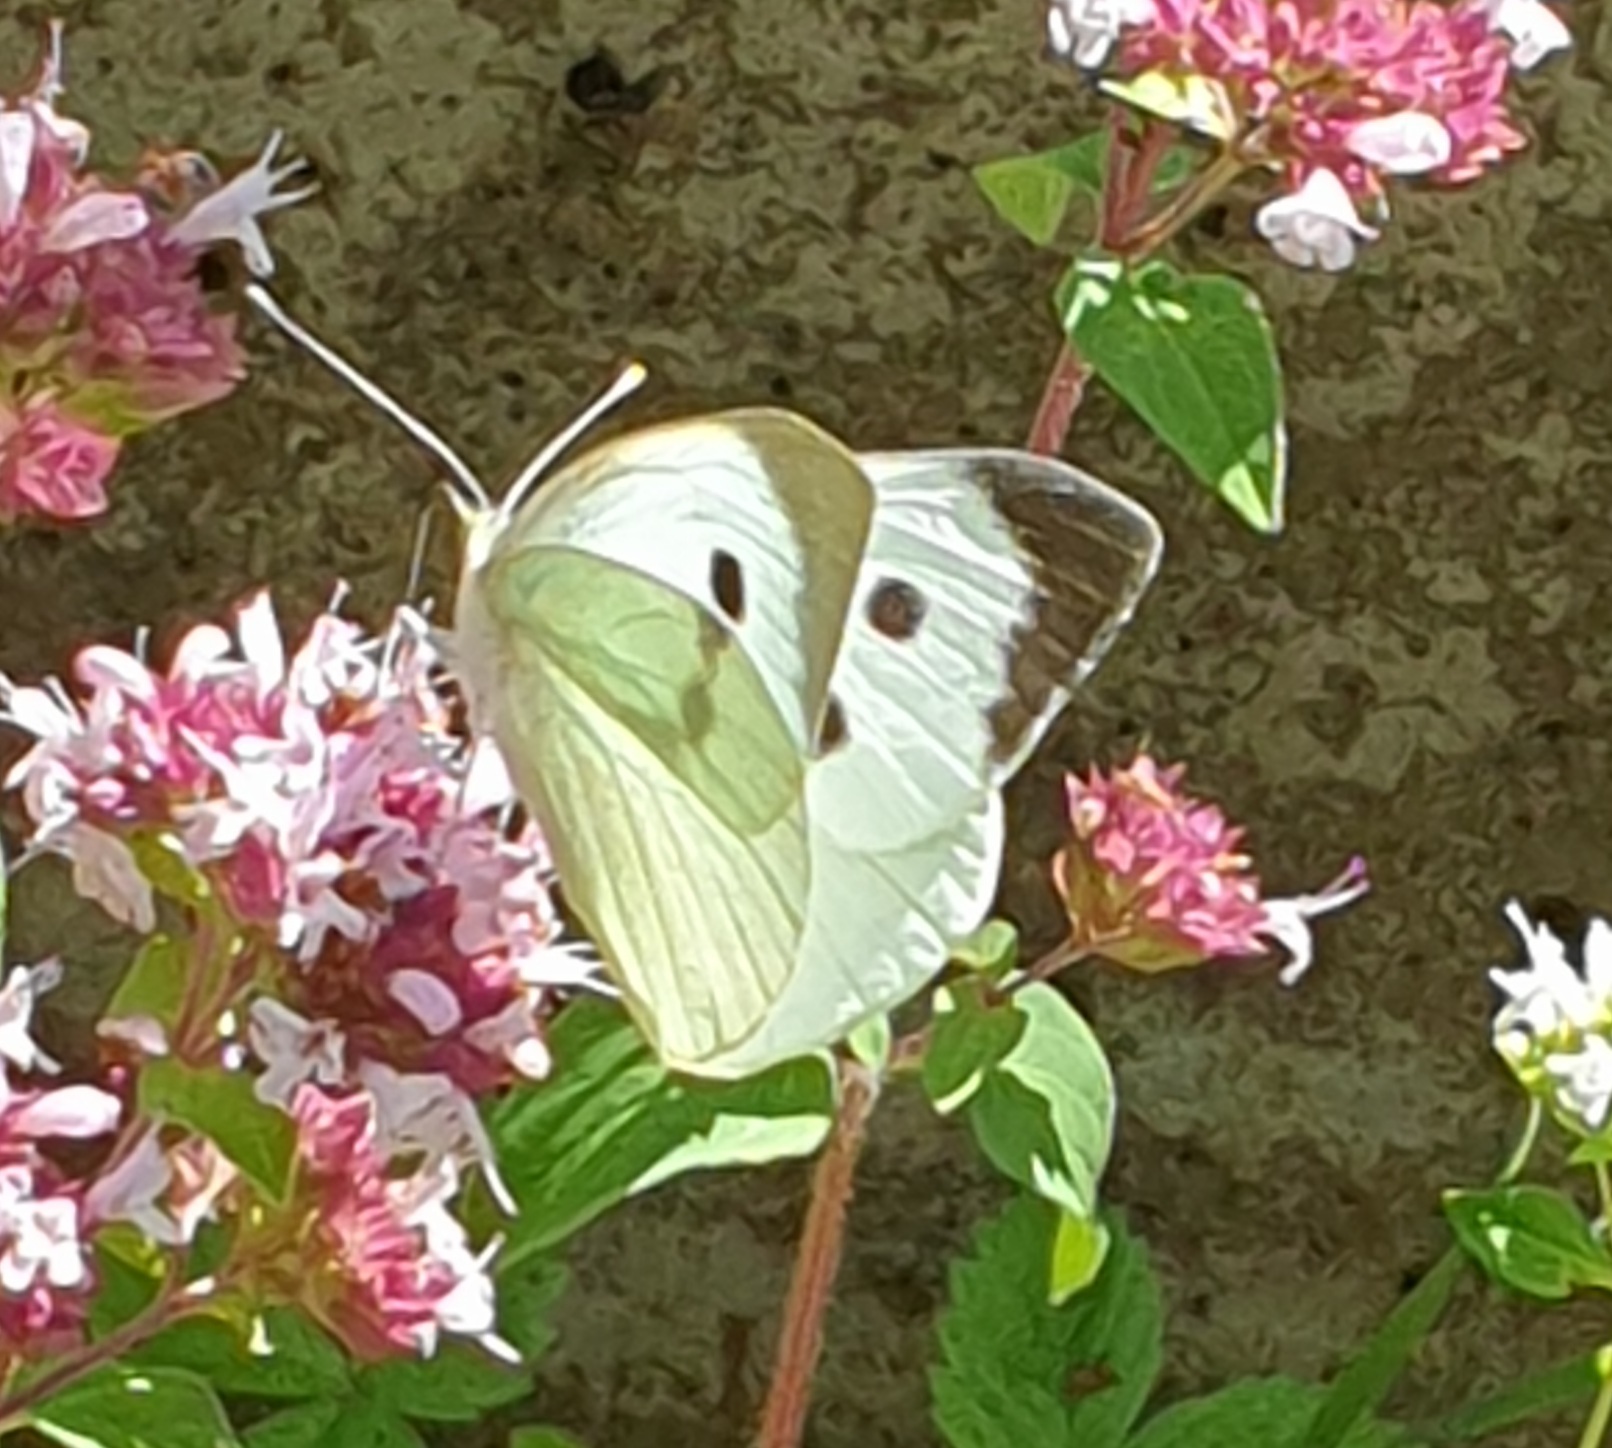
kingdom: Animalia
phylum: Arthropoda
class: Insecta
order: Lepidoptera
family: Pieridae
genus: Pieris
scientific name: Pieris brassicae
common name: Large white
